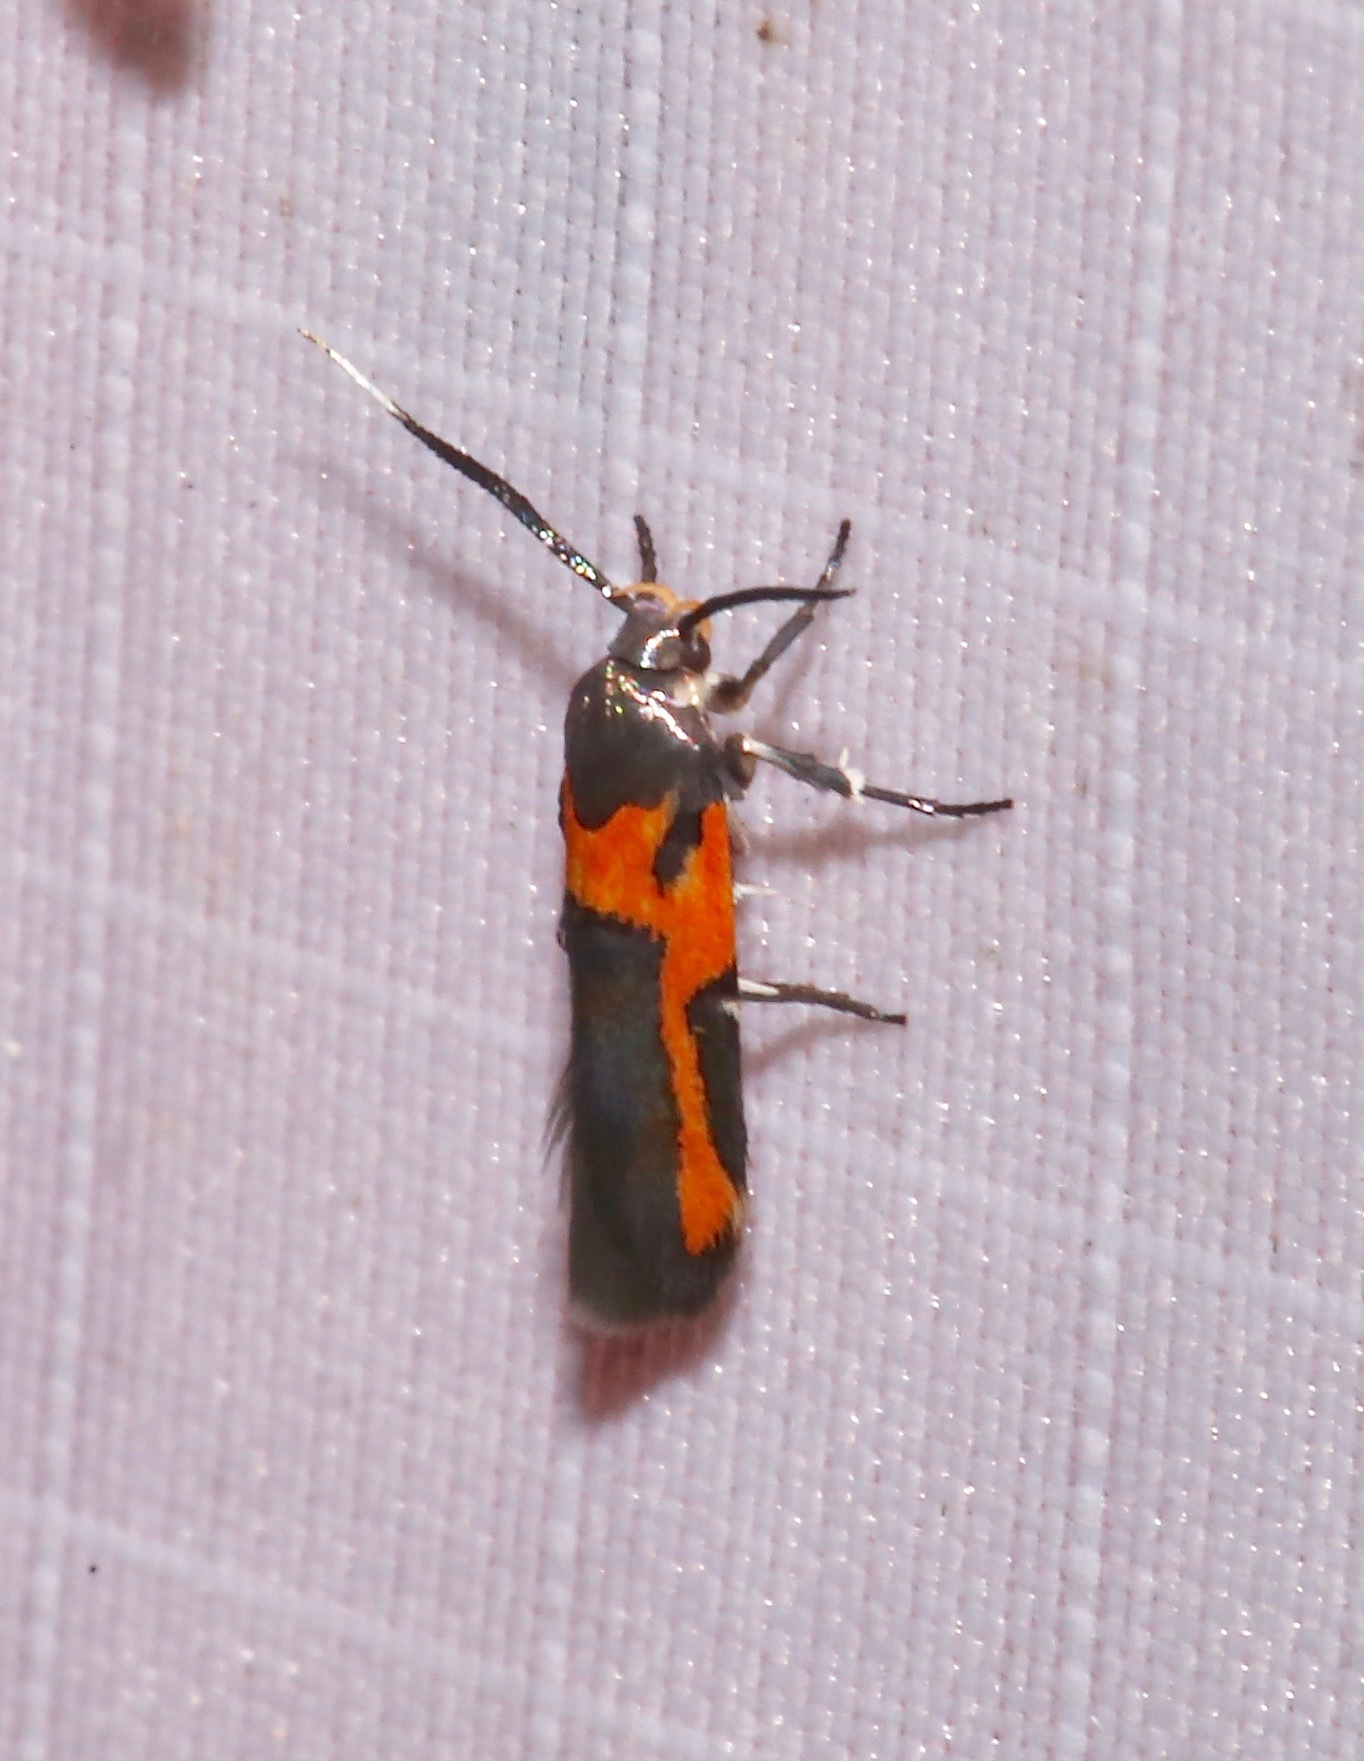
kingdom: Animalia
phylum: Arthropoda
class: Insecta
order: Lepidoptera
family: Cosmopterigidae
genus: Euclemensia
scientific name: Euclemensia bassettella
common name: Kermes scale moth
